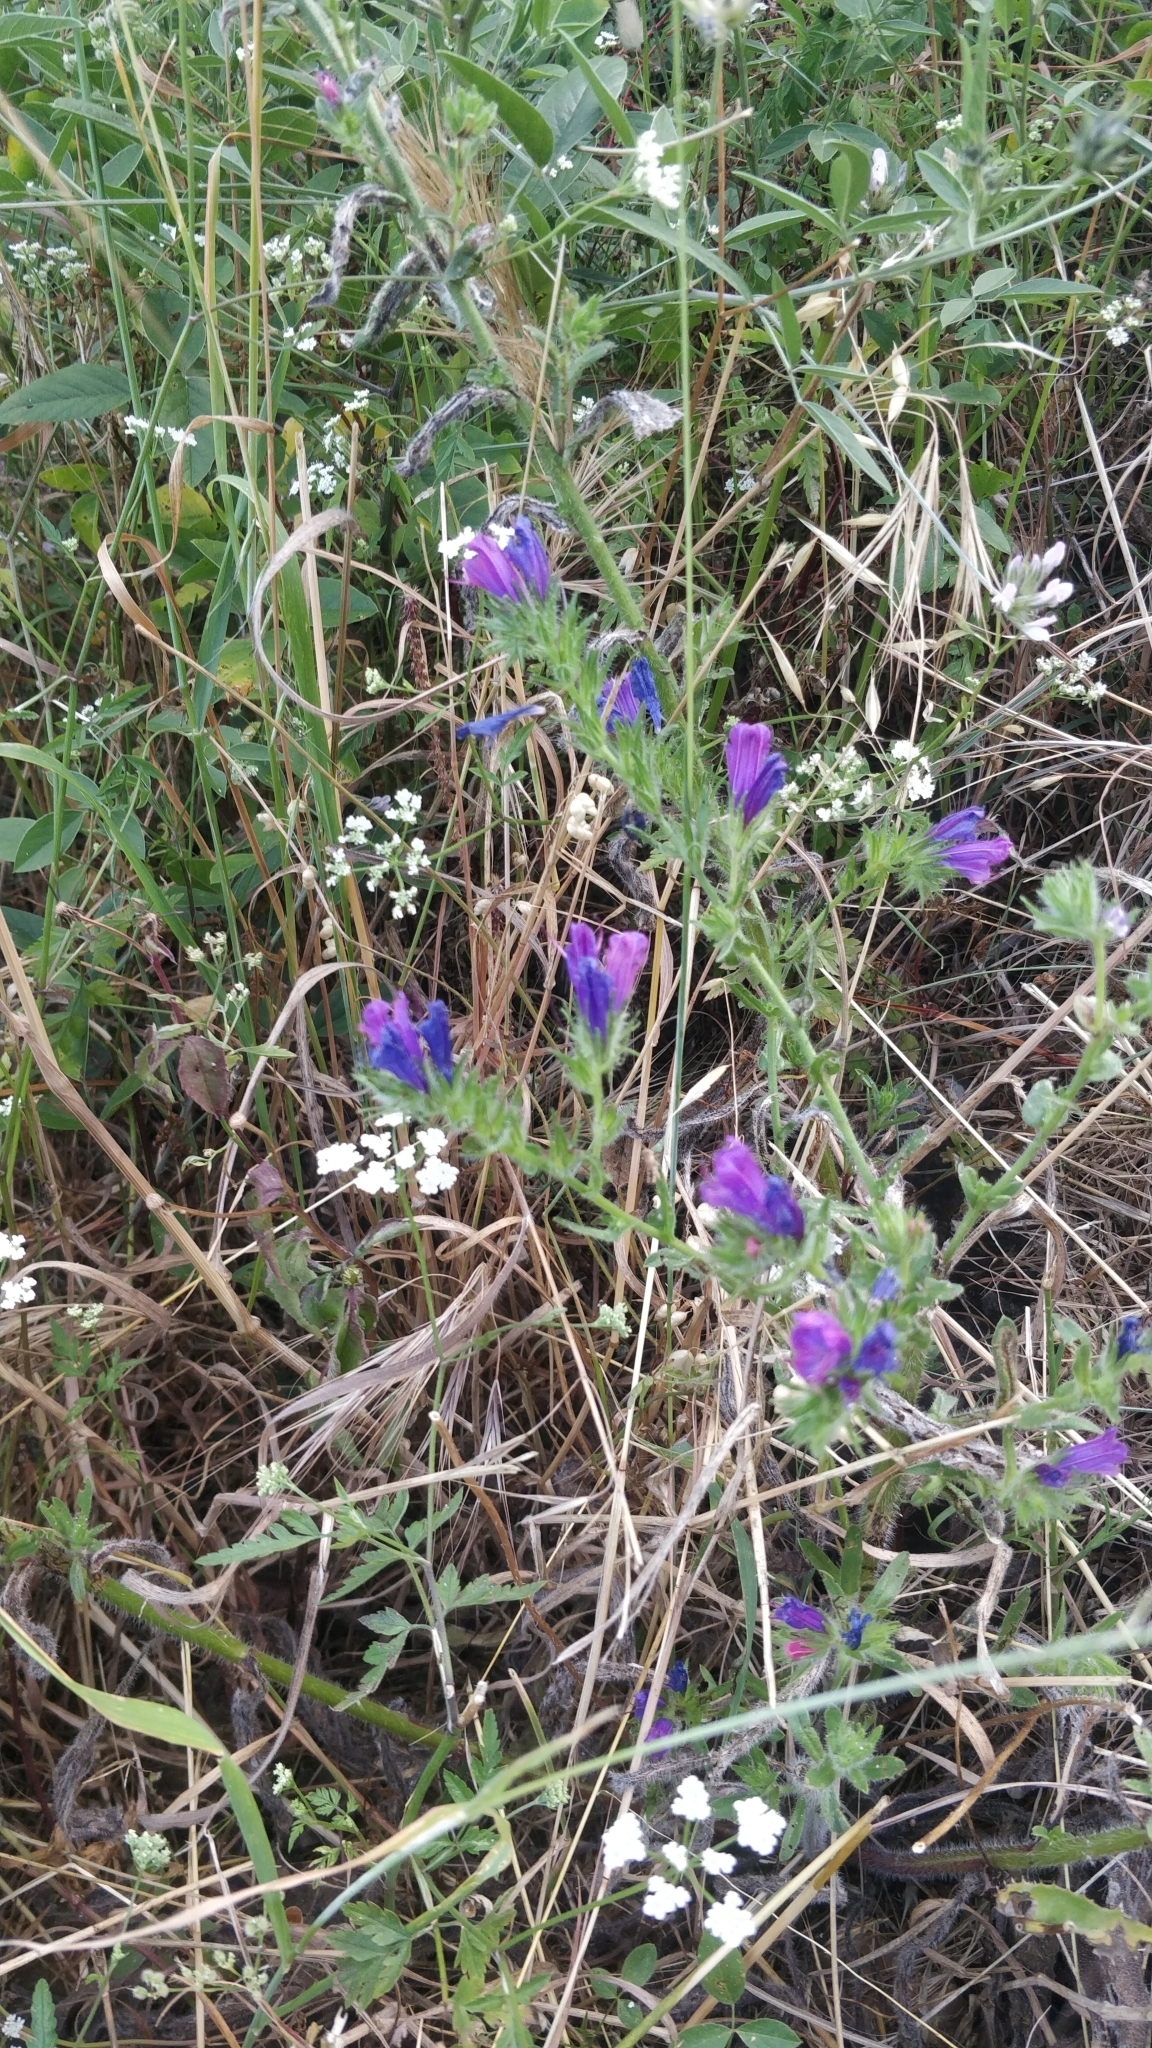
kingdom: Plantae
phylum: Tracheophyta
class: Magnoliopsida
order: Boraginales
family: Boraginaceae
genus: Echium
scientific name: Echium plantagineum
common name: Purple viper's-bugloss
